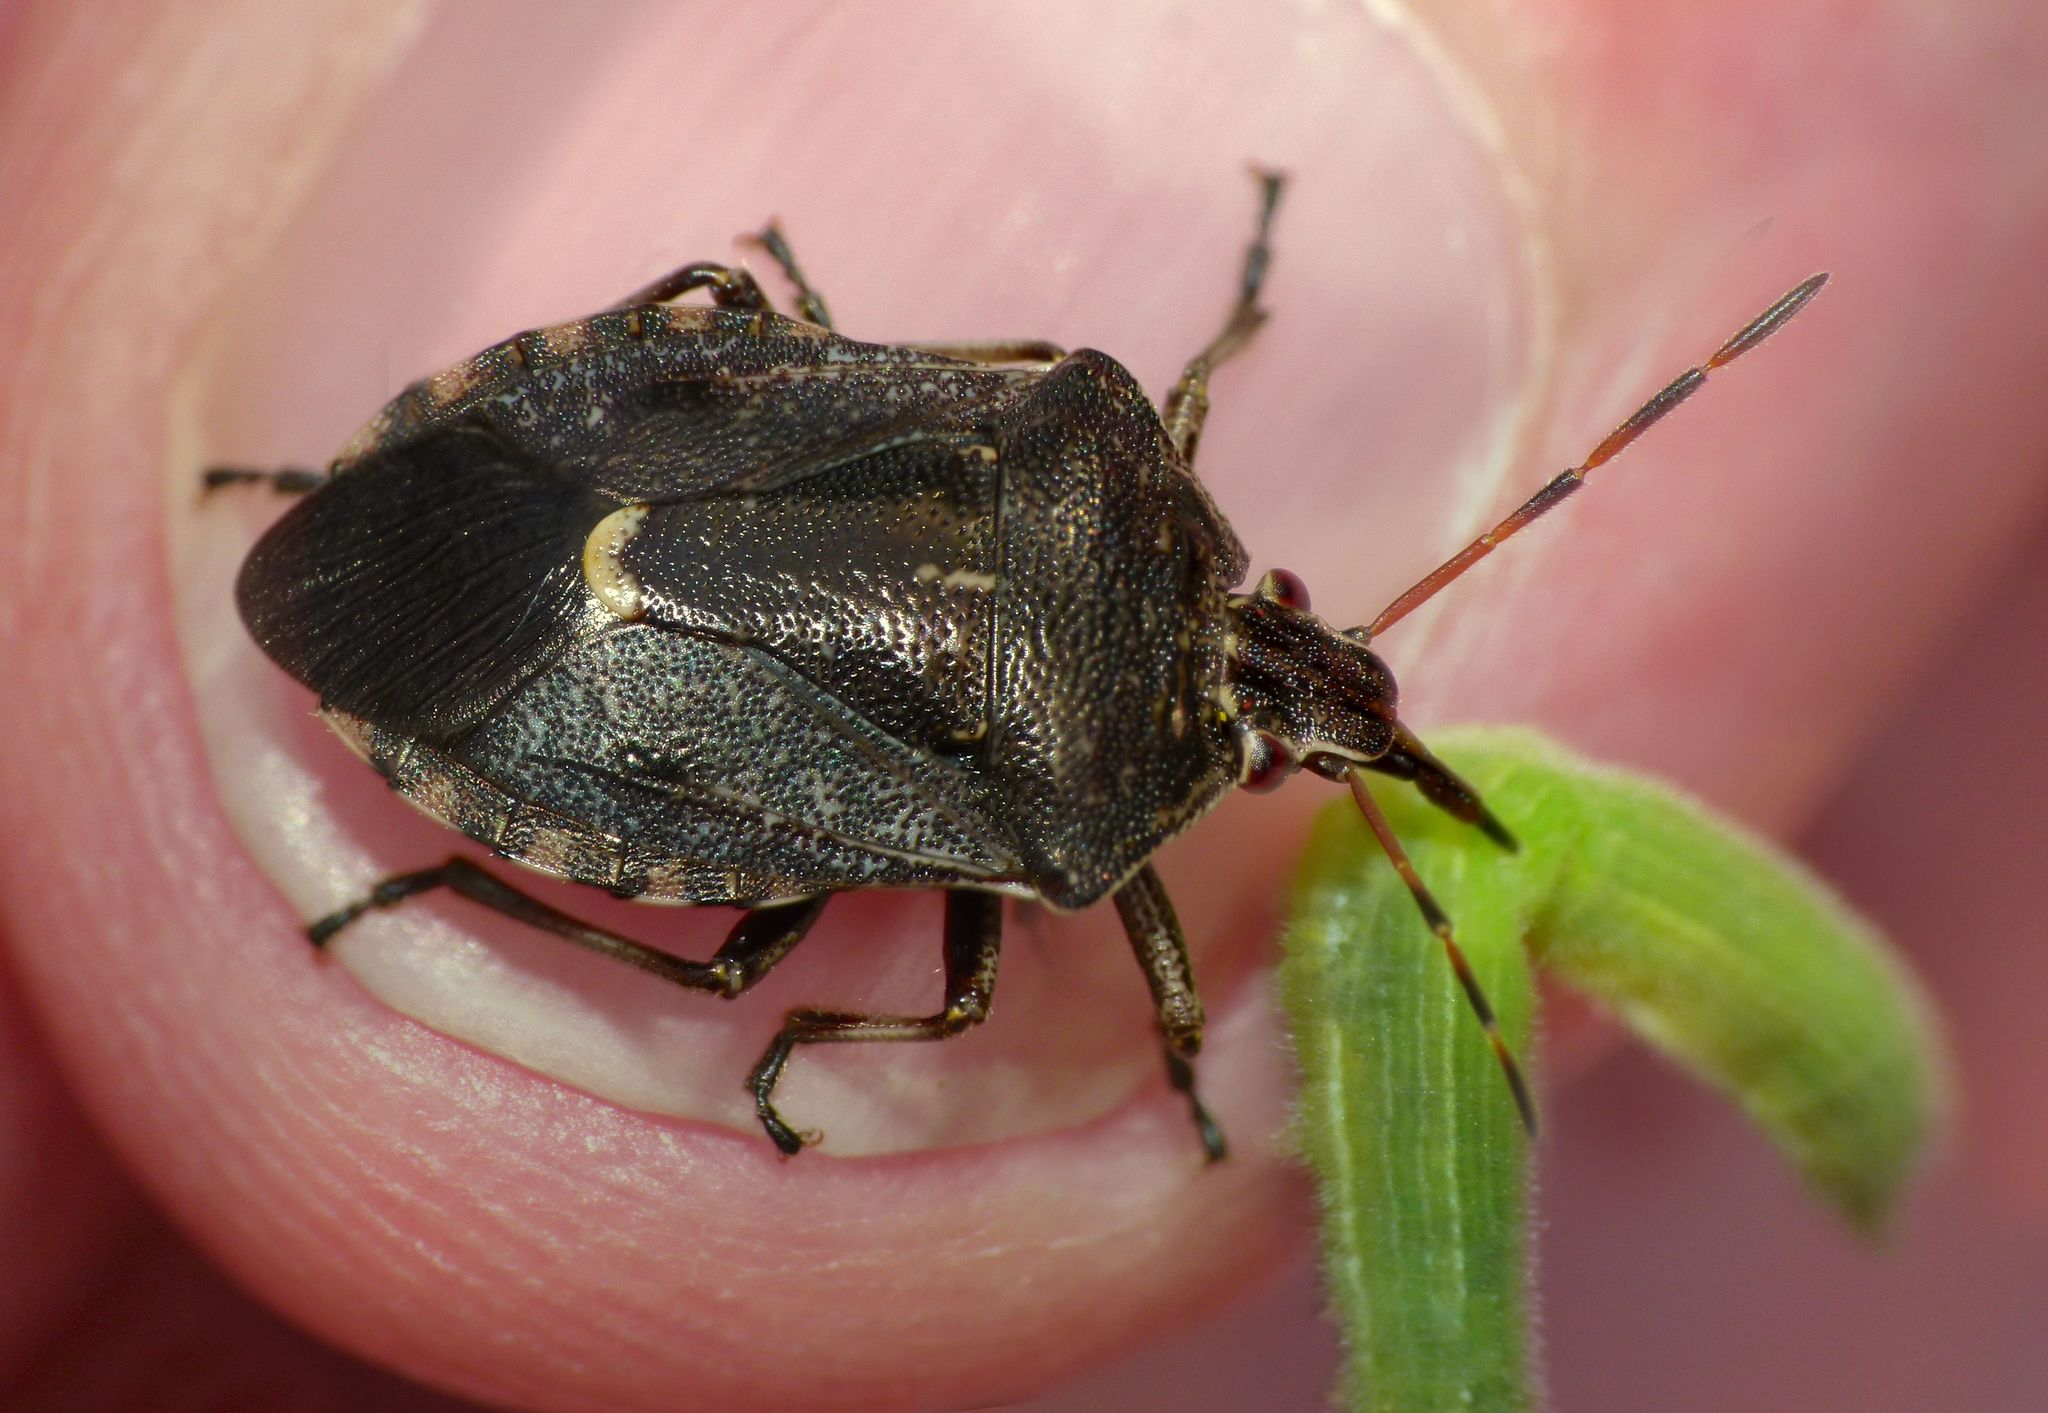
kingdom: Animalia
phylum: Arthropoda
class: Insecta
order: Hemiptera
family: Pentatomidae
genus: Cermatulus
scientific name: Cermatulus nasalis
